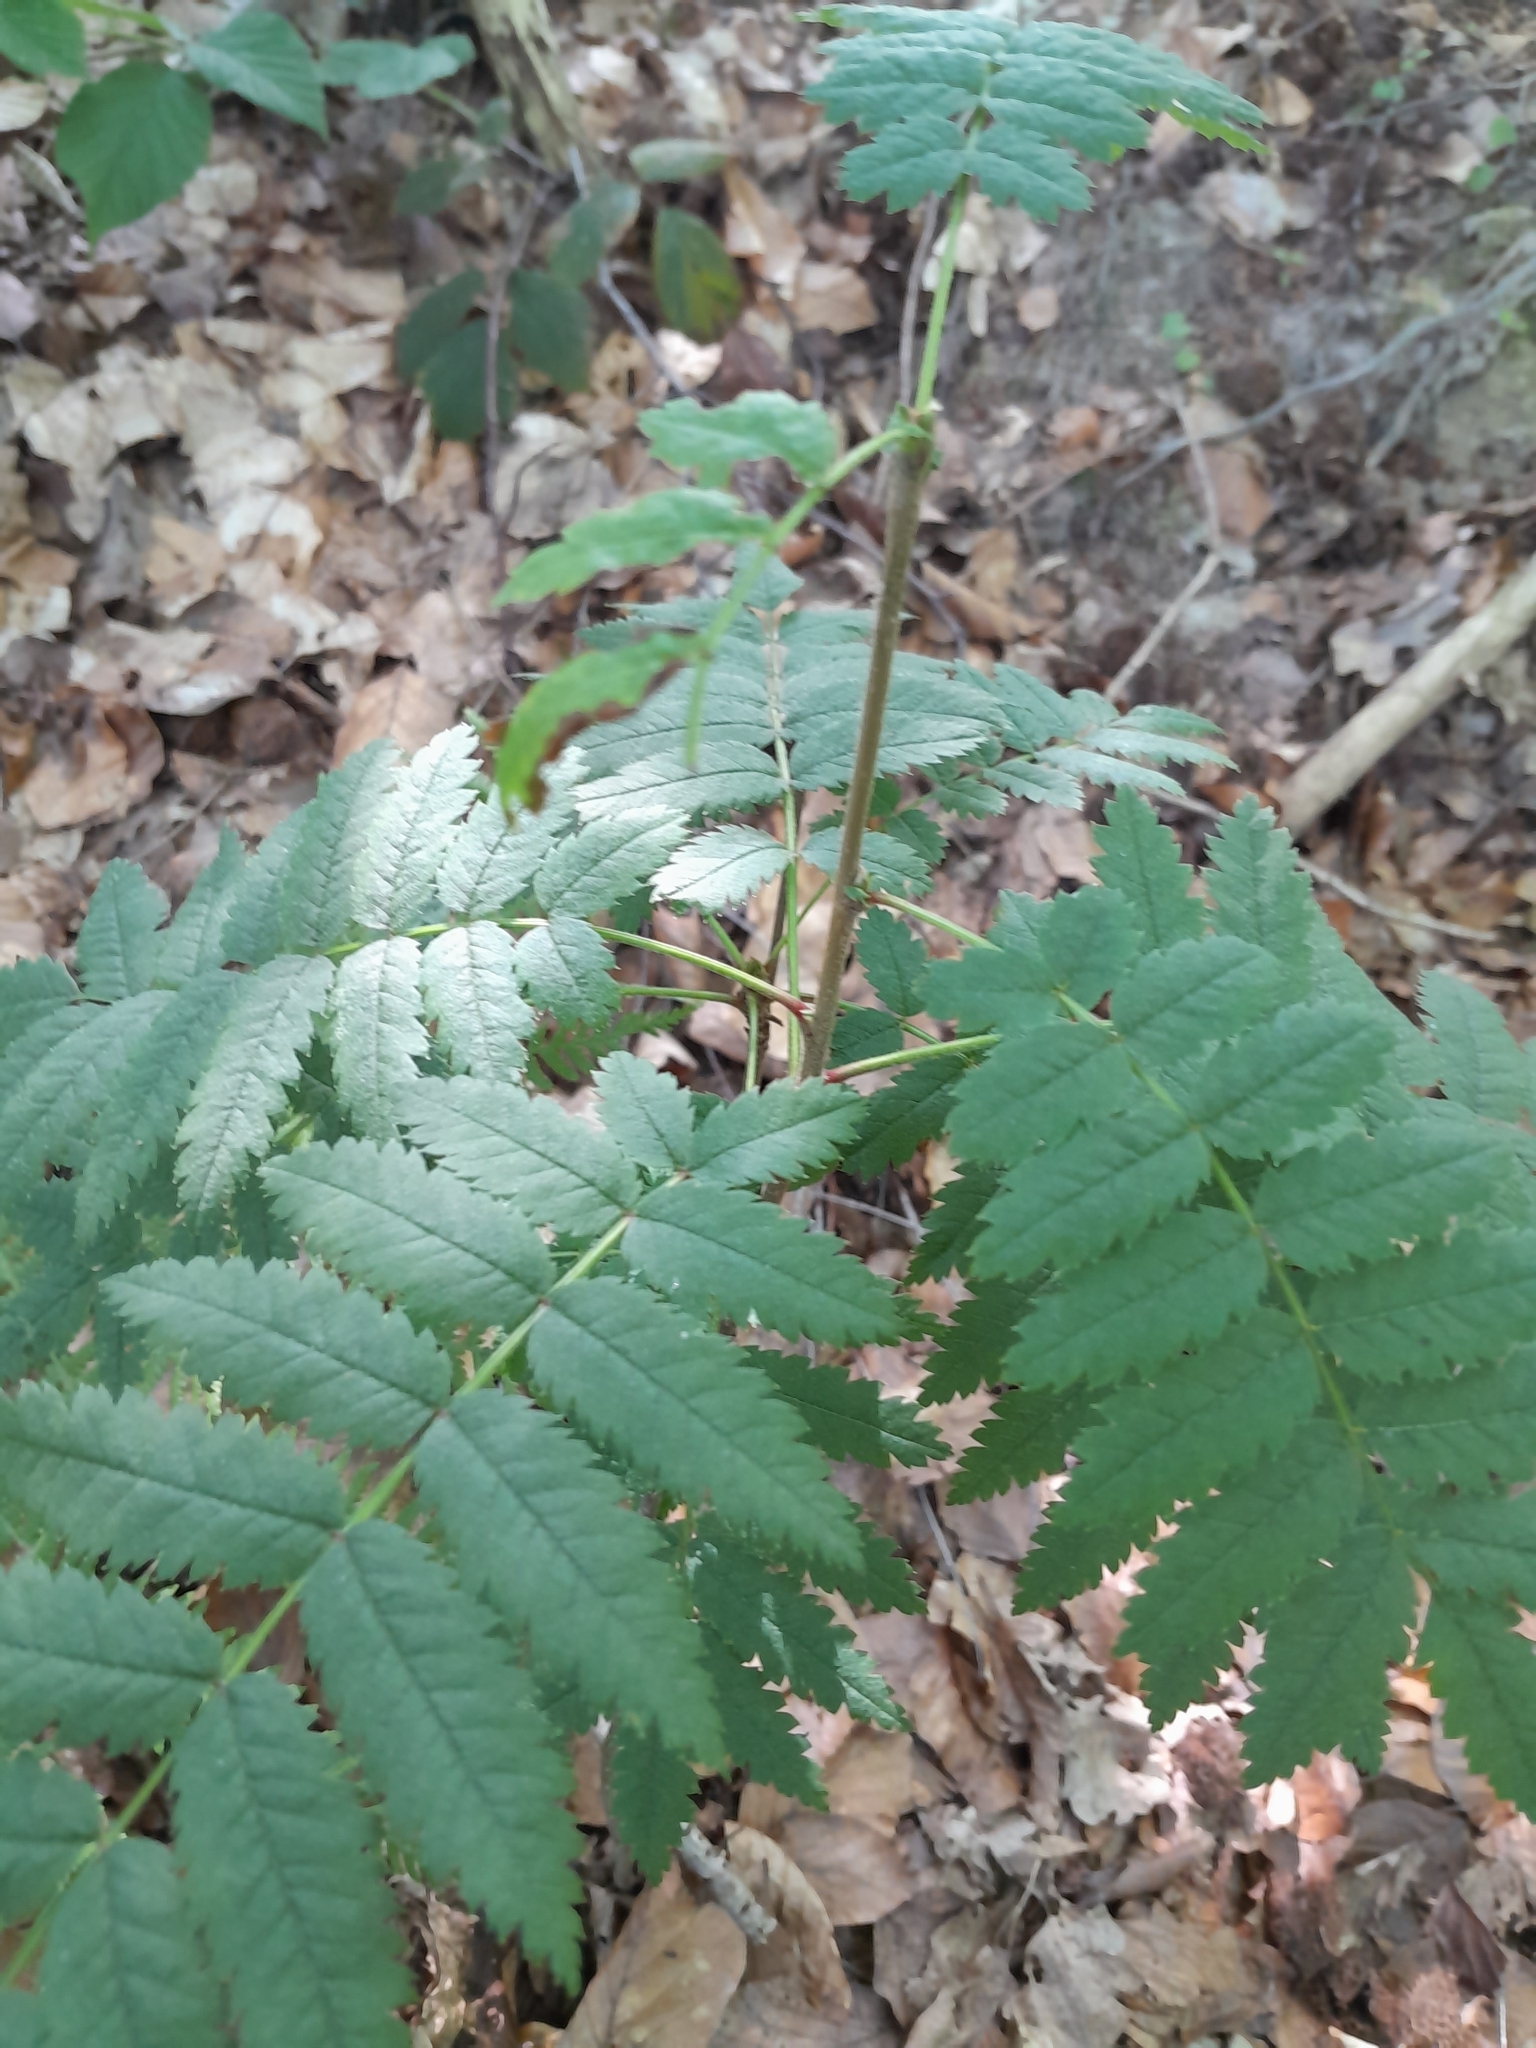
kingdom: Plantae
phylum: Tracheophyta
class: Magnoliopsida
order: Rosales
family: Rosaceae
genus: Sorbus
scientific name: Sorbus aucuparia
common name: Rowan
